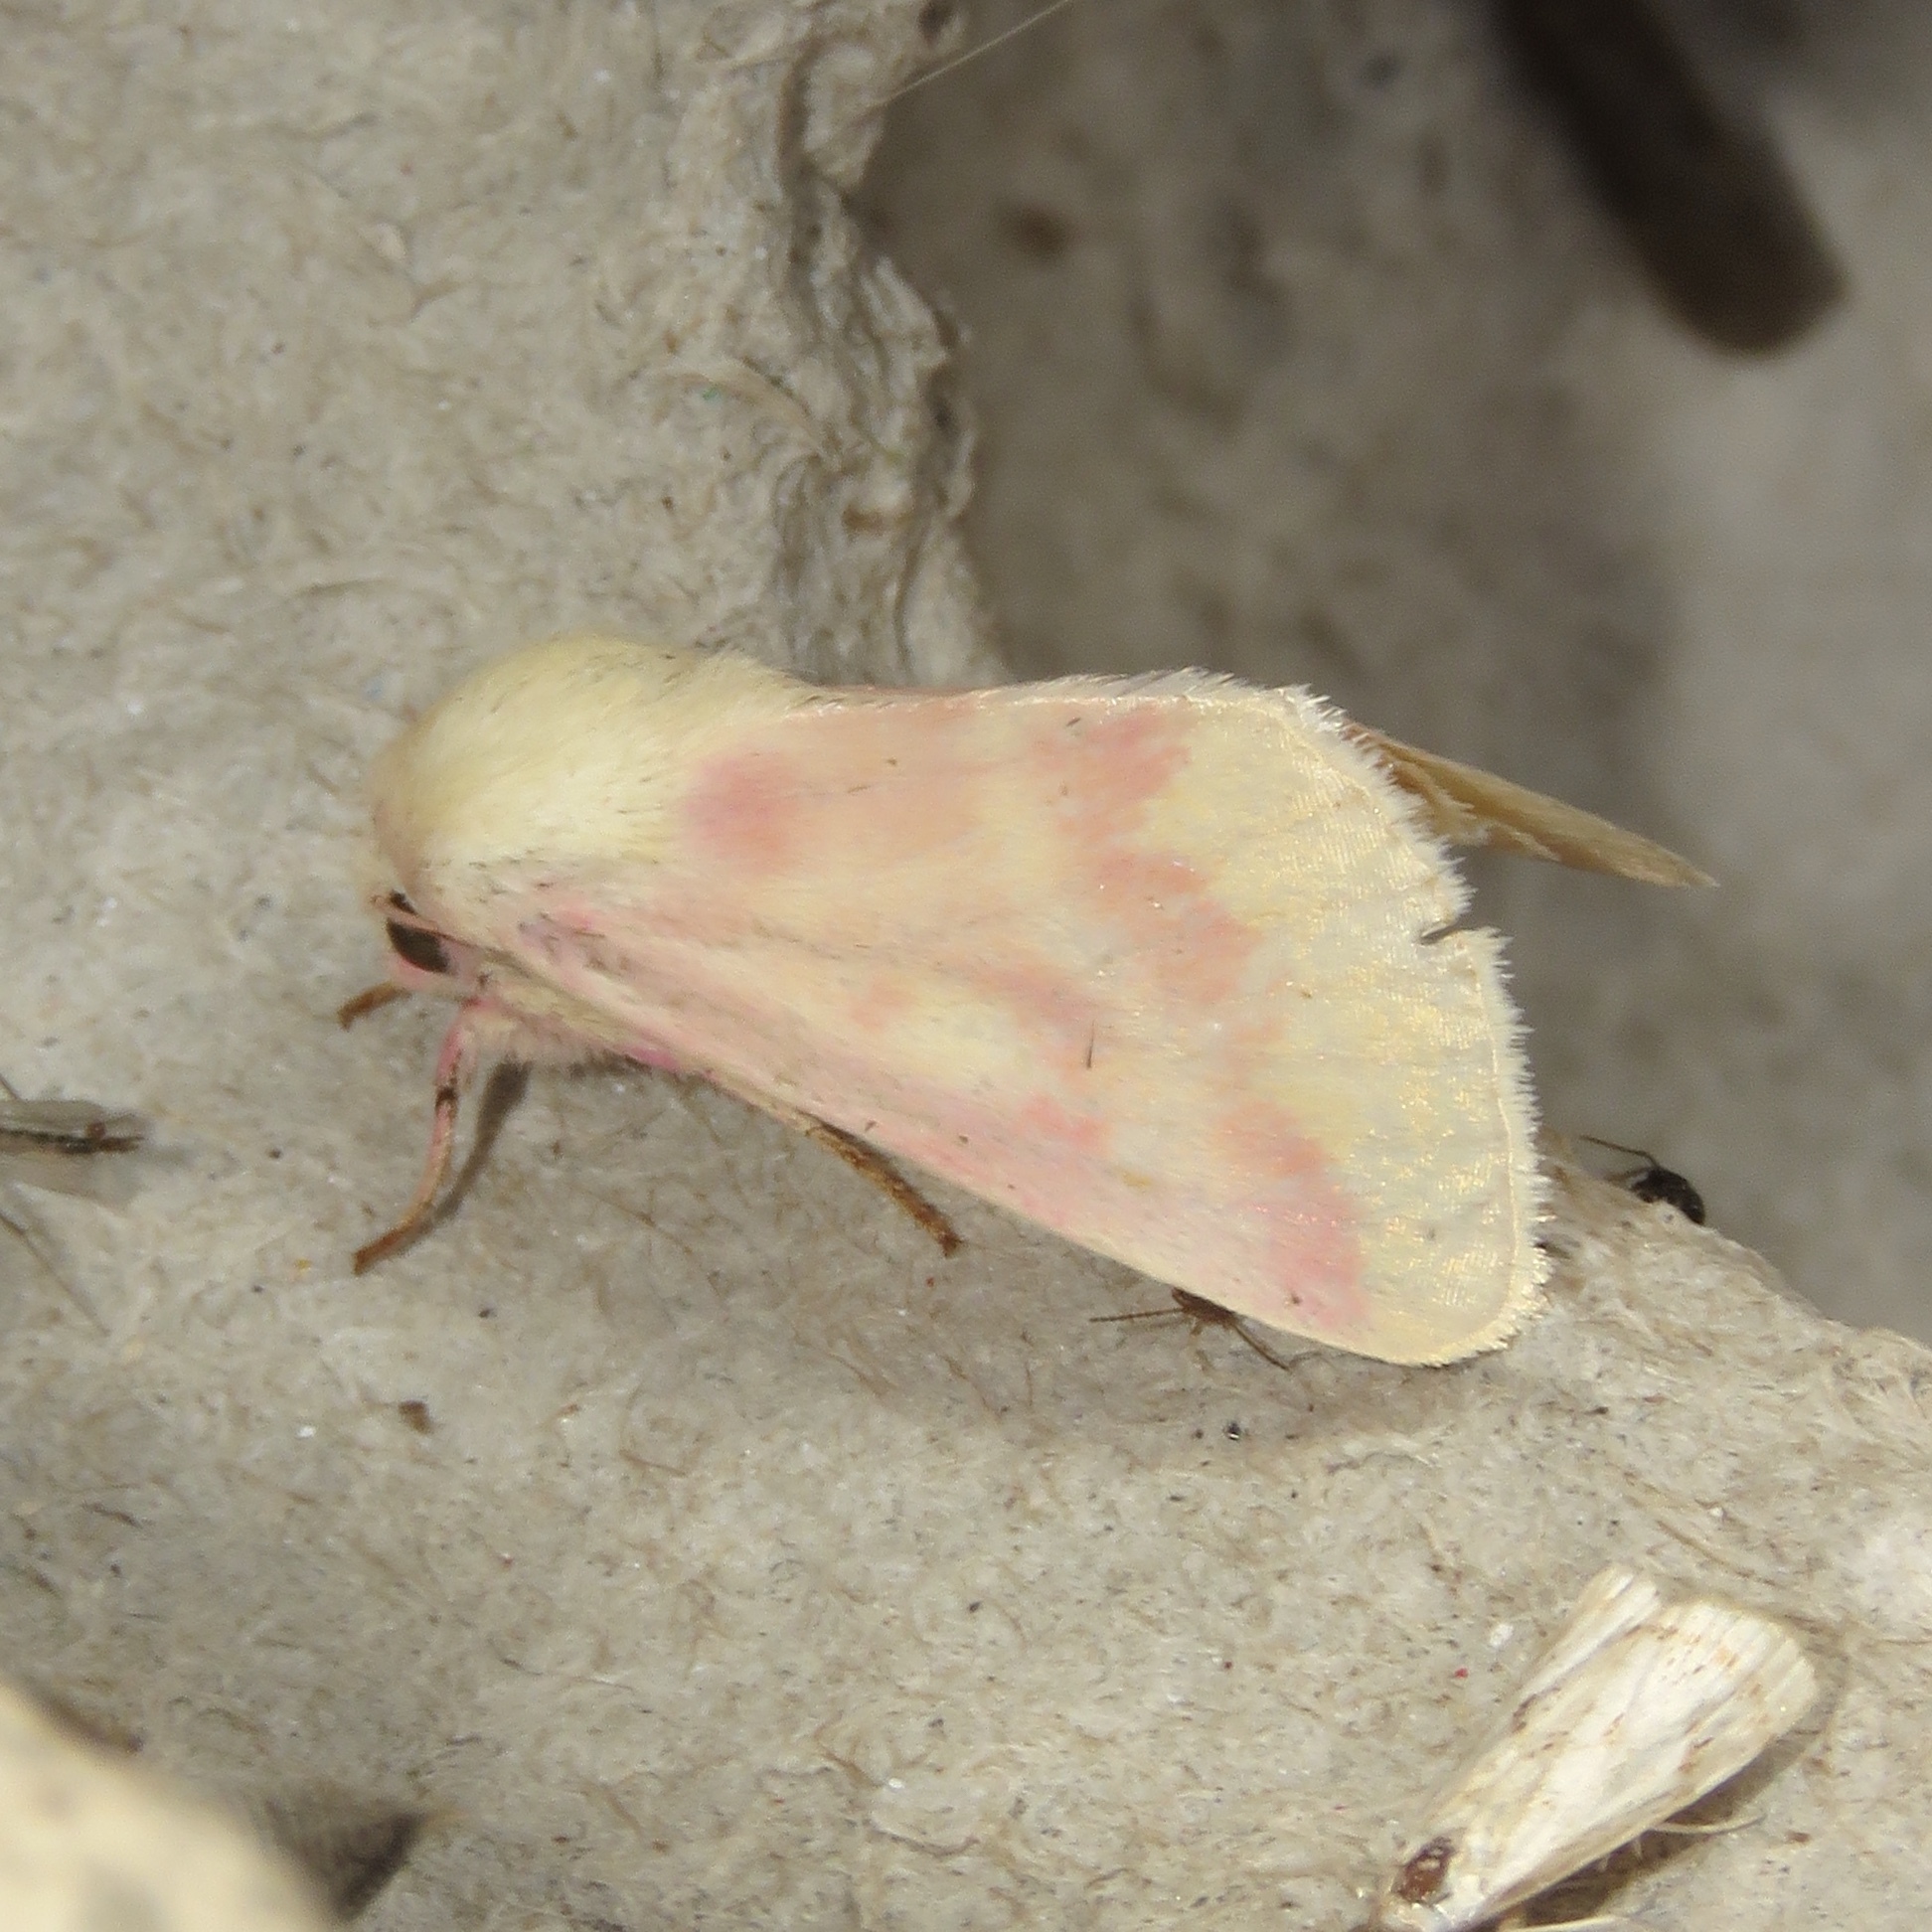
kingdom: Animalia
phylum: Arthropoda
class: Insecta
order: Lepidoptera
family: Noctuidae
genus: Schinia
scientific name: Schinia florida
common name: Primrose moth
